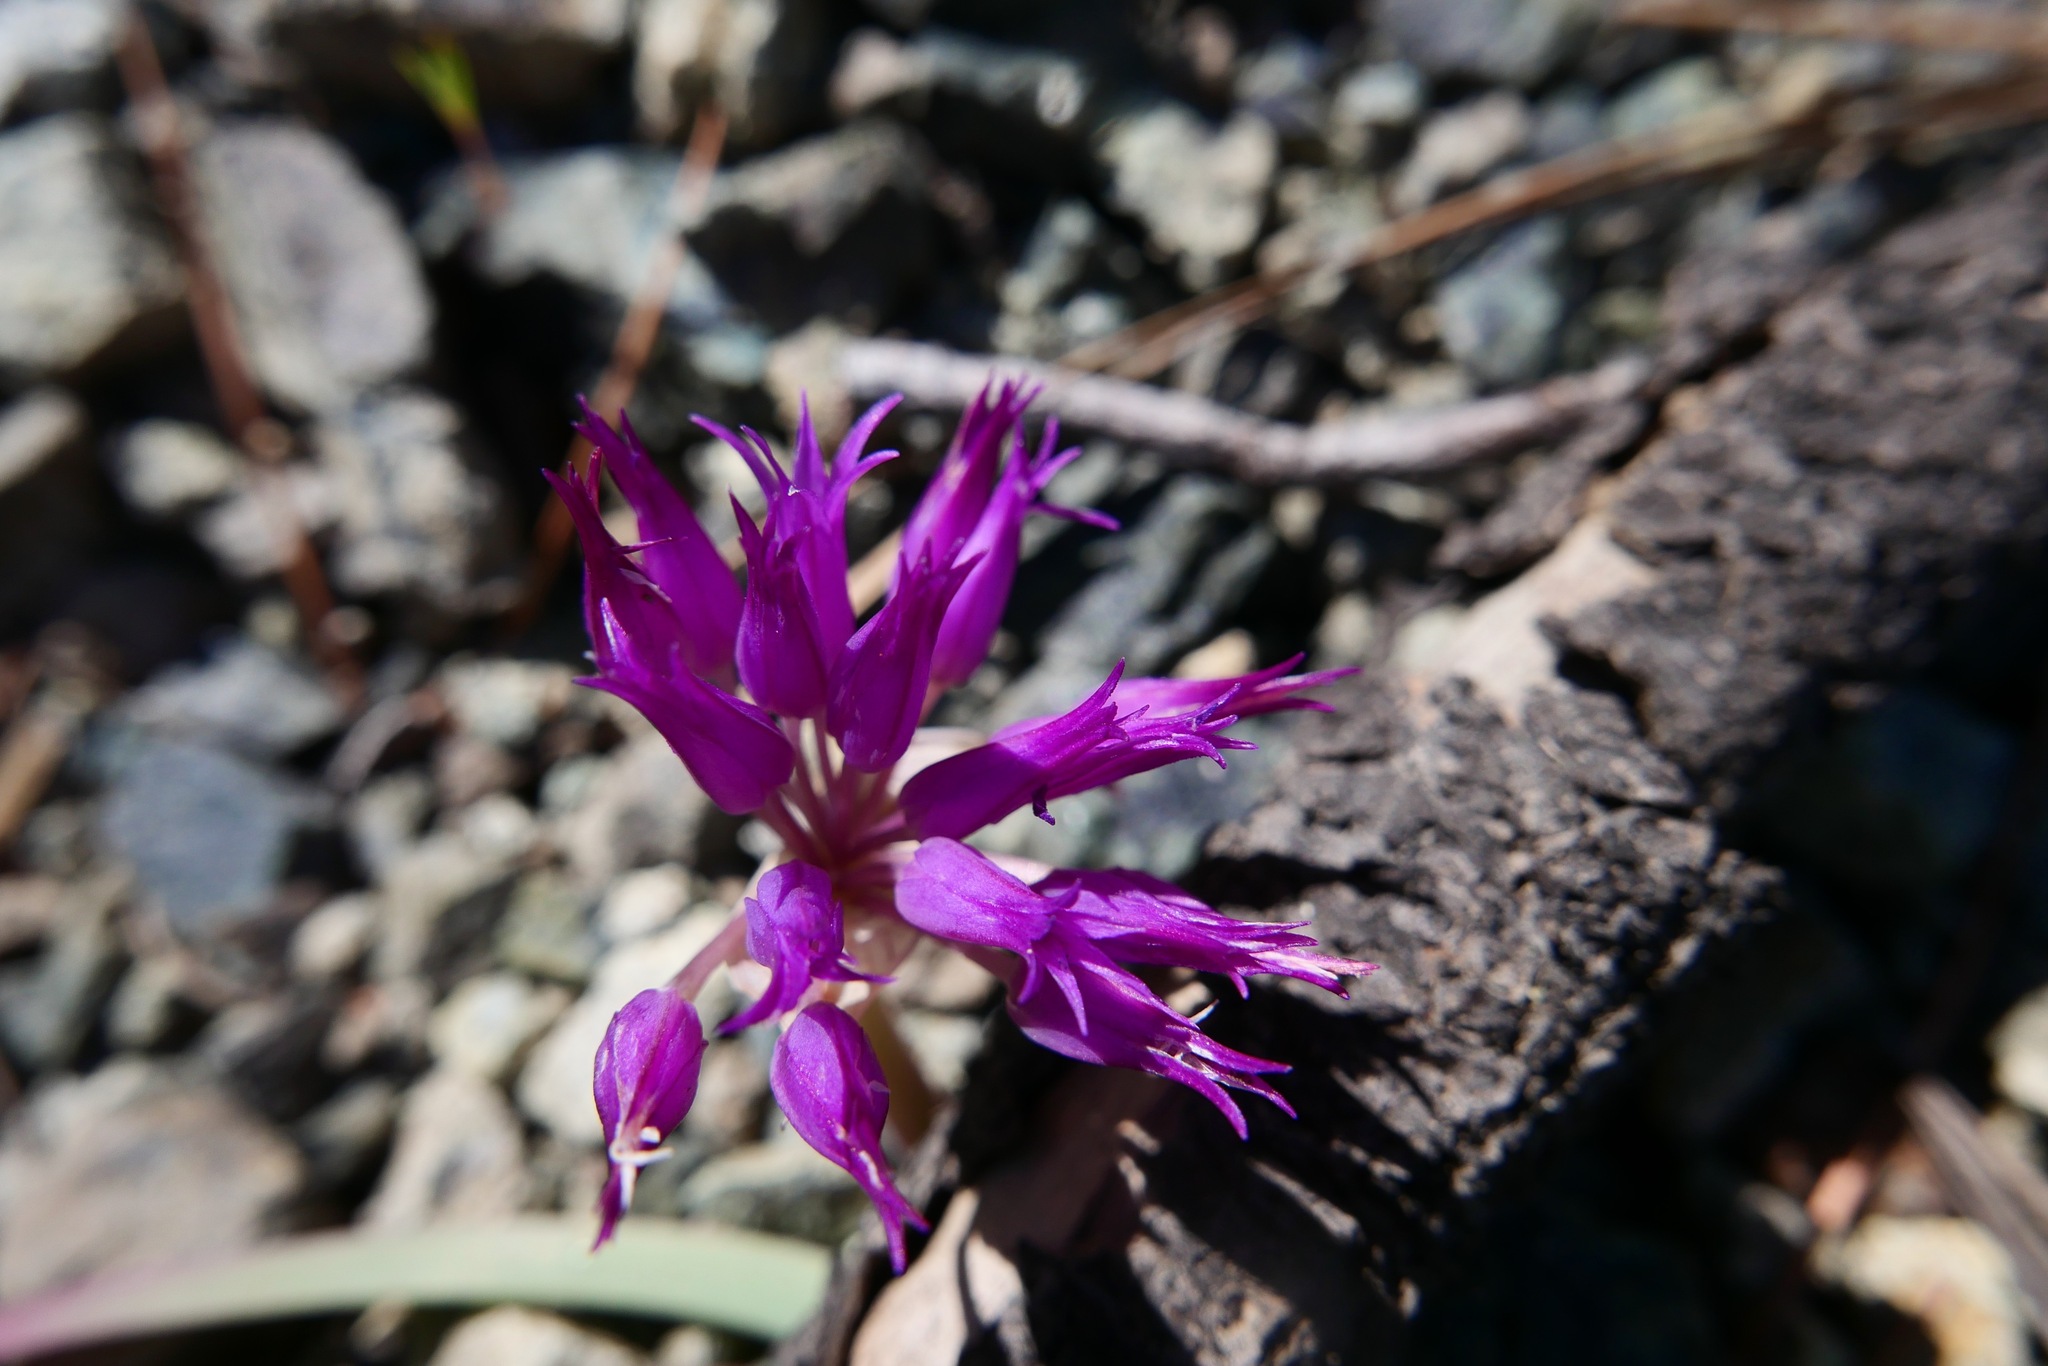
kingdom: Plantae
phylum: Tracheophyta
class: Liliopsida
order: Asparagales
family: Amaryllidaceae
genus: Allium
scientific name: Allium falcifolium
